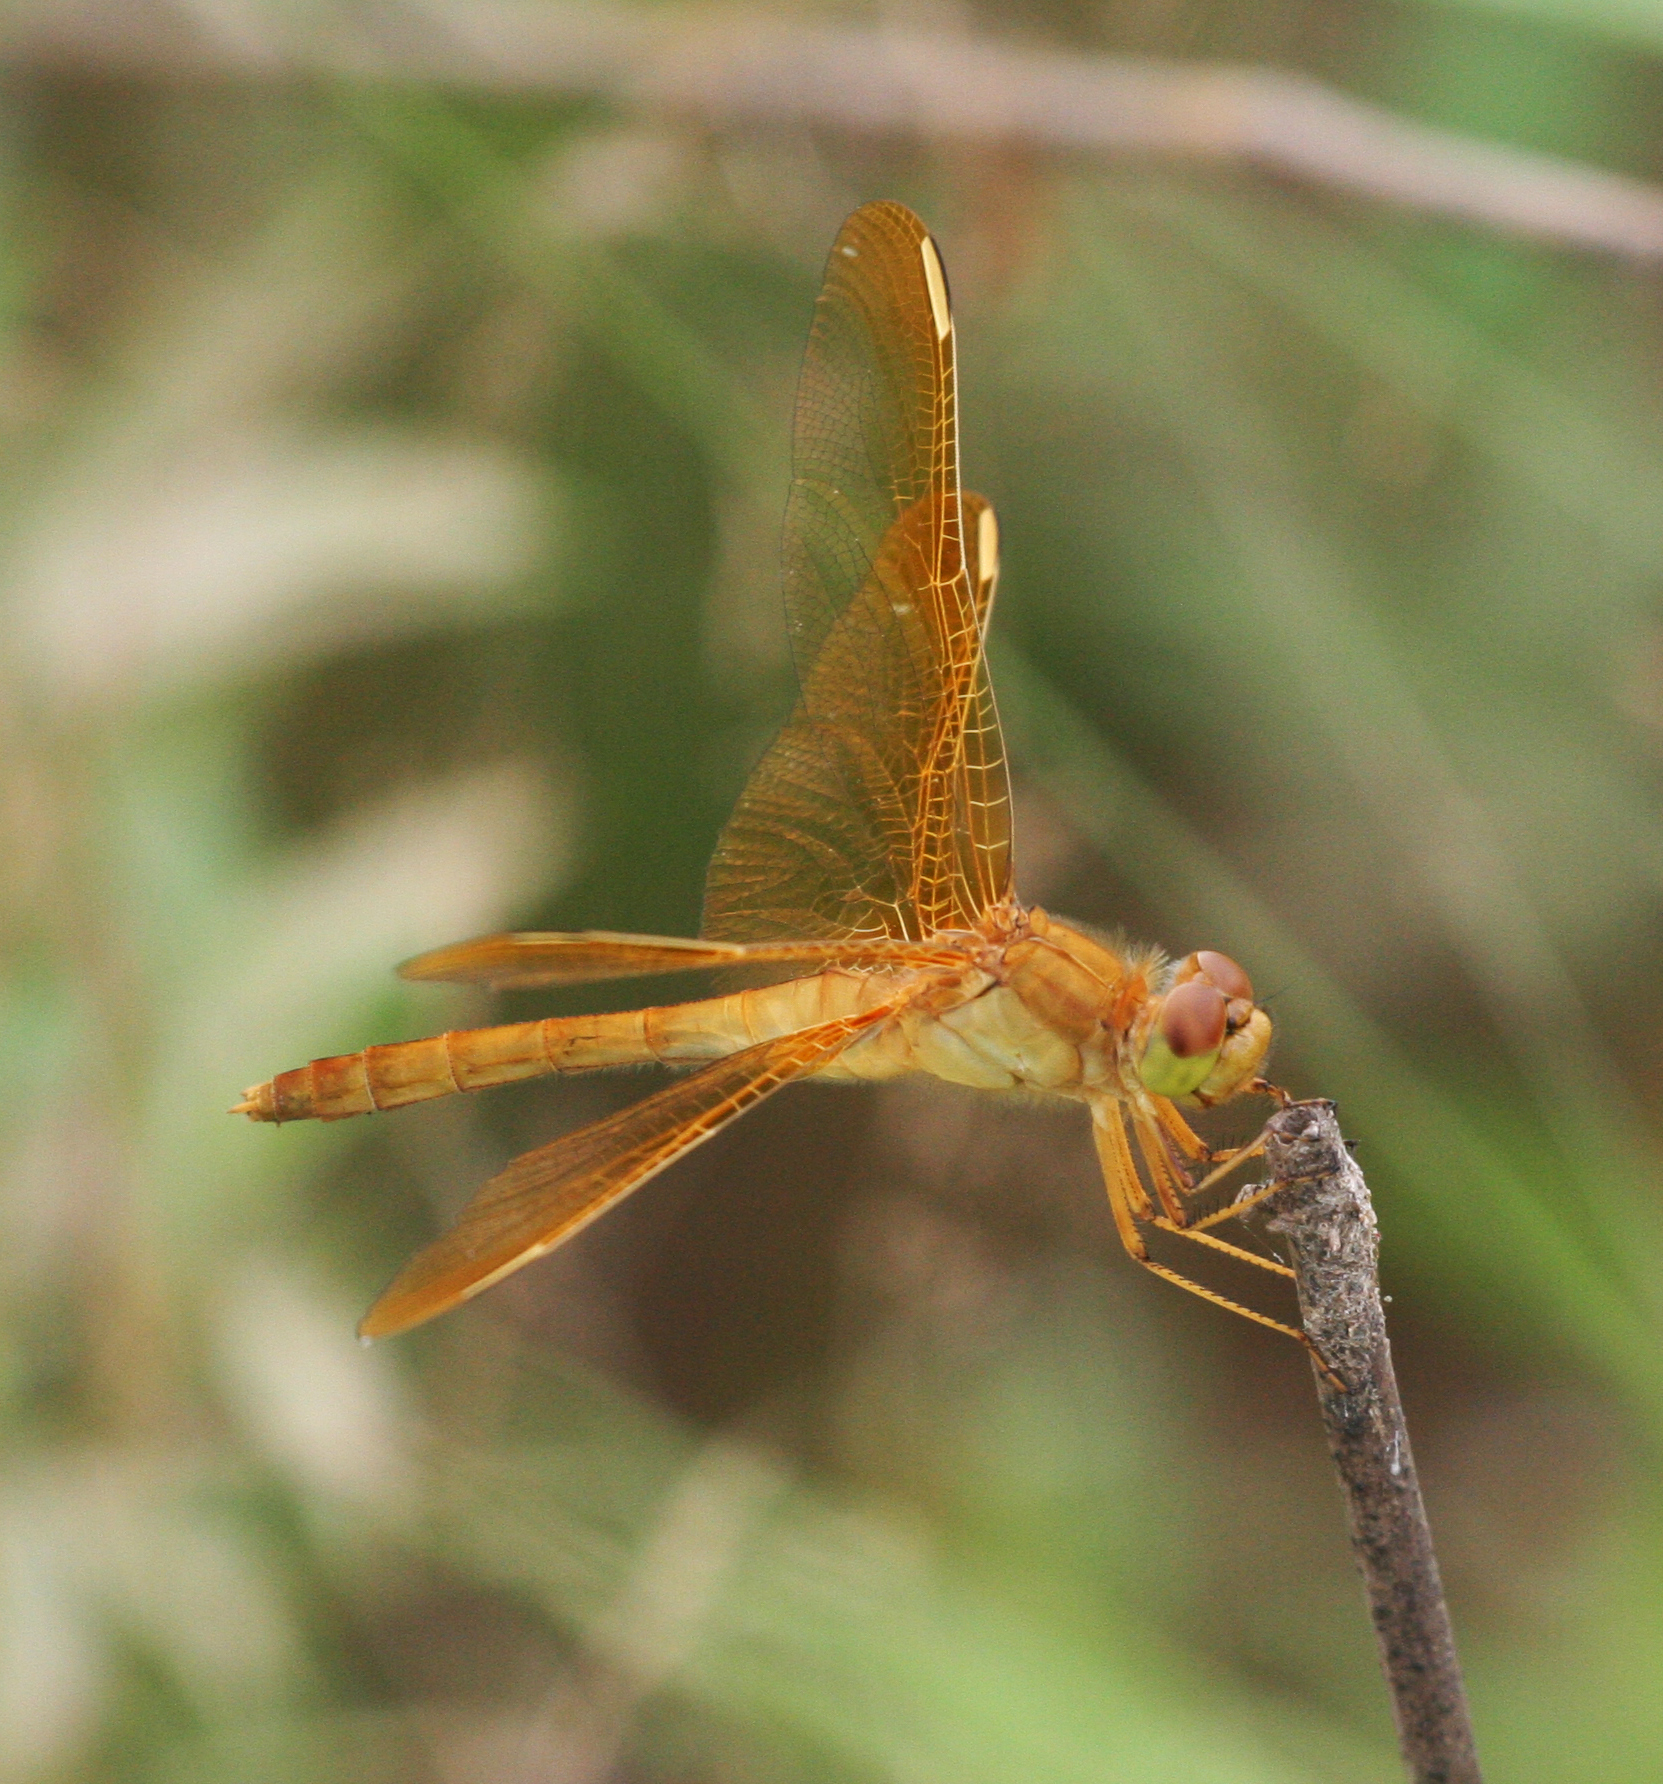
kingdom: Animalia
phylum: Arthropoda
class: Insecta
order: Odonata
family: Libellulidae
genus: Sympetrum
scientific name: Sympetrum uniforme
